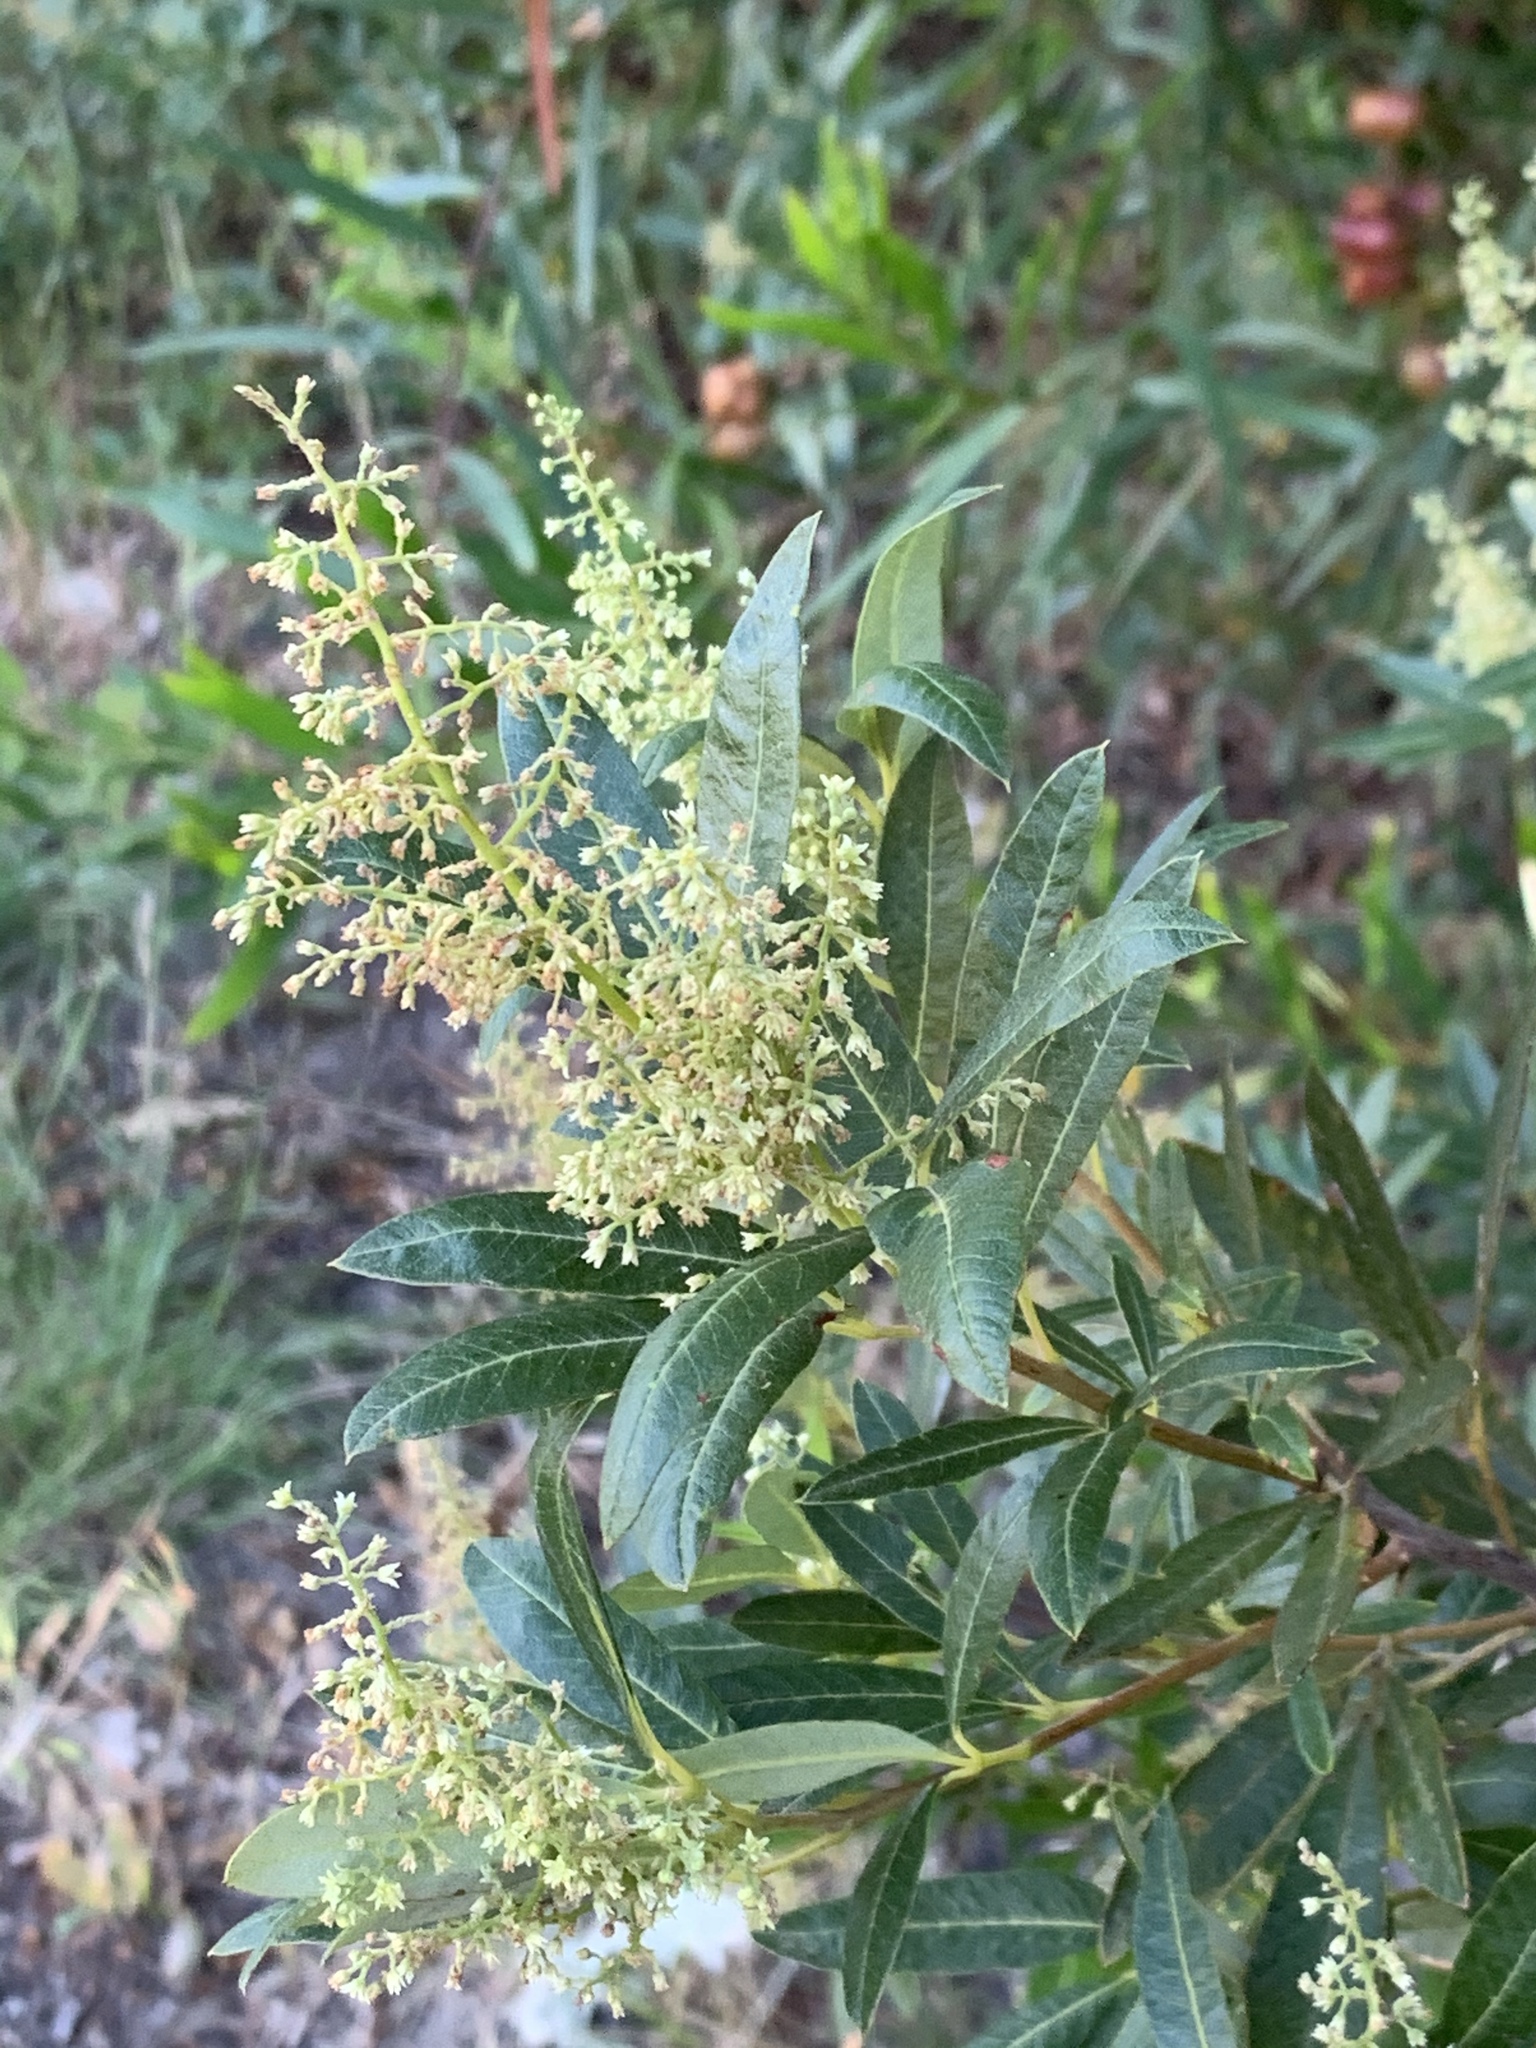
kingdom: Plantae
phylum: Tracheophyta
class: Magnoliopsida
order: Sapindales
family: Anacardiaceae
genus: Searsia
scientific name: Searsia angustifolia
